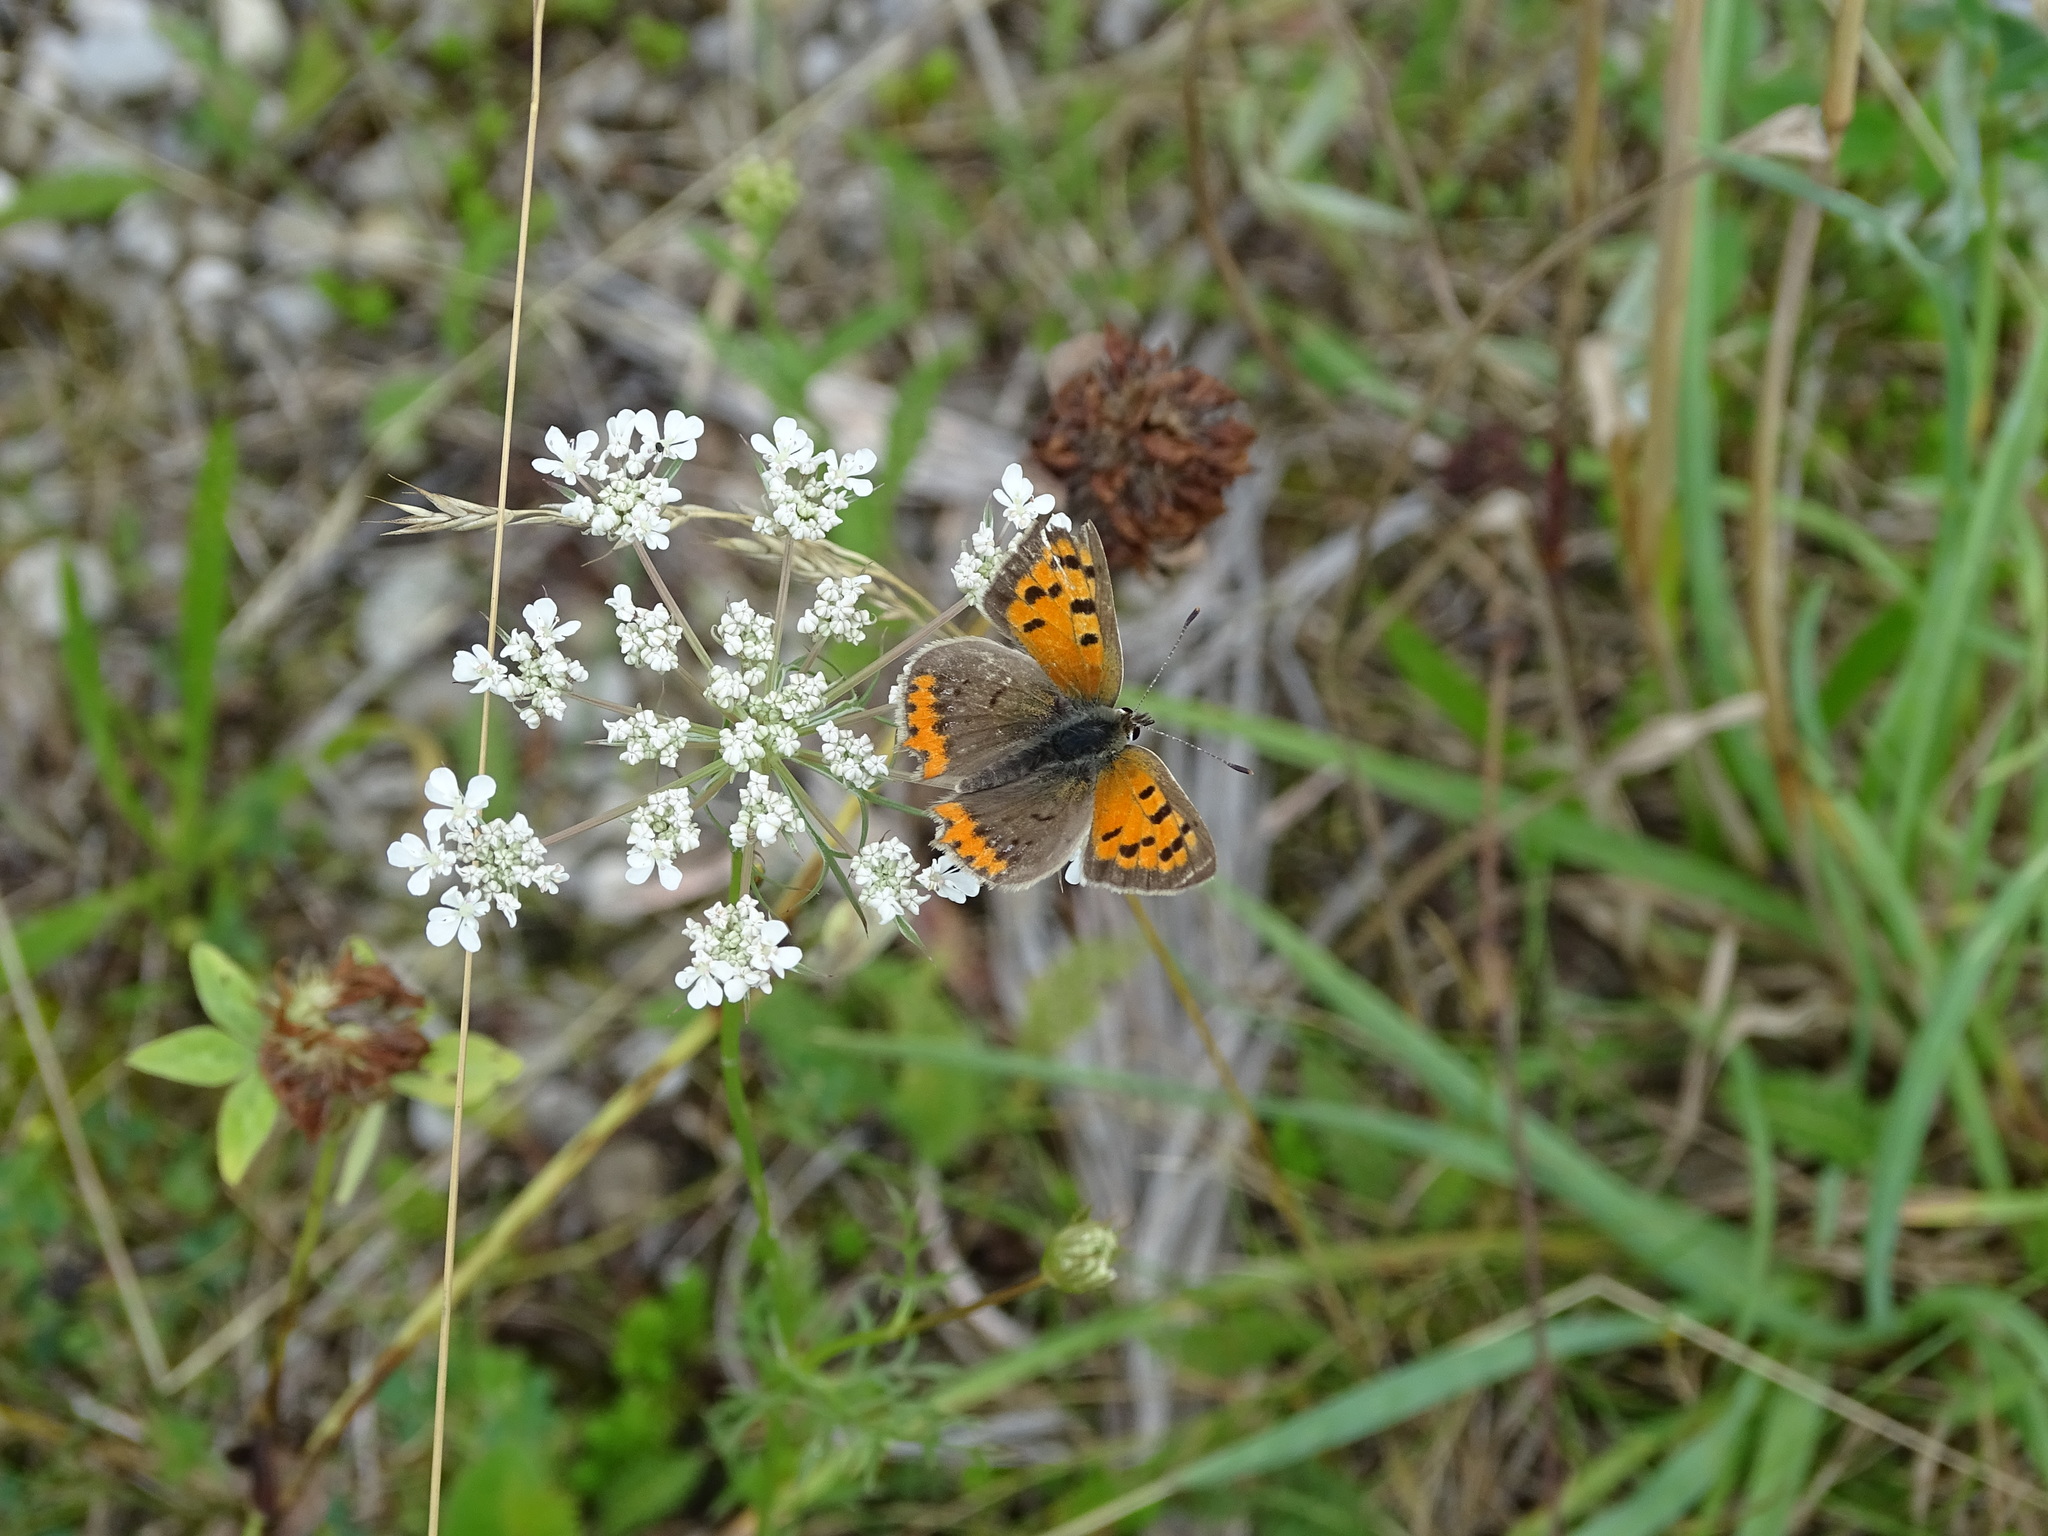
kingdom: Animalia
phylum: Arthropoda
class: Insecta
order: Lepidoptera
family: Lycaenidae
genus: Lycaena
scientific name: Lycaena phlaeas
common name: Small copper
